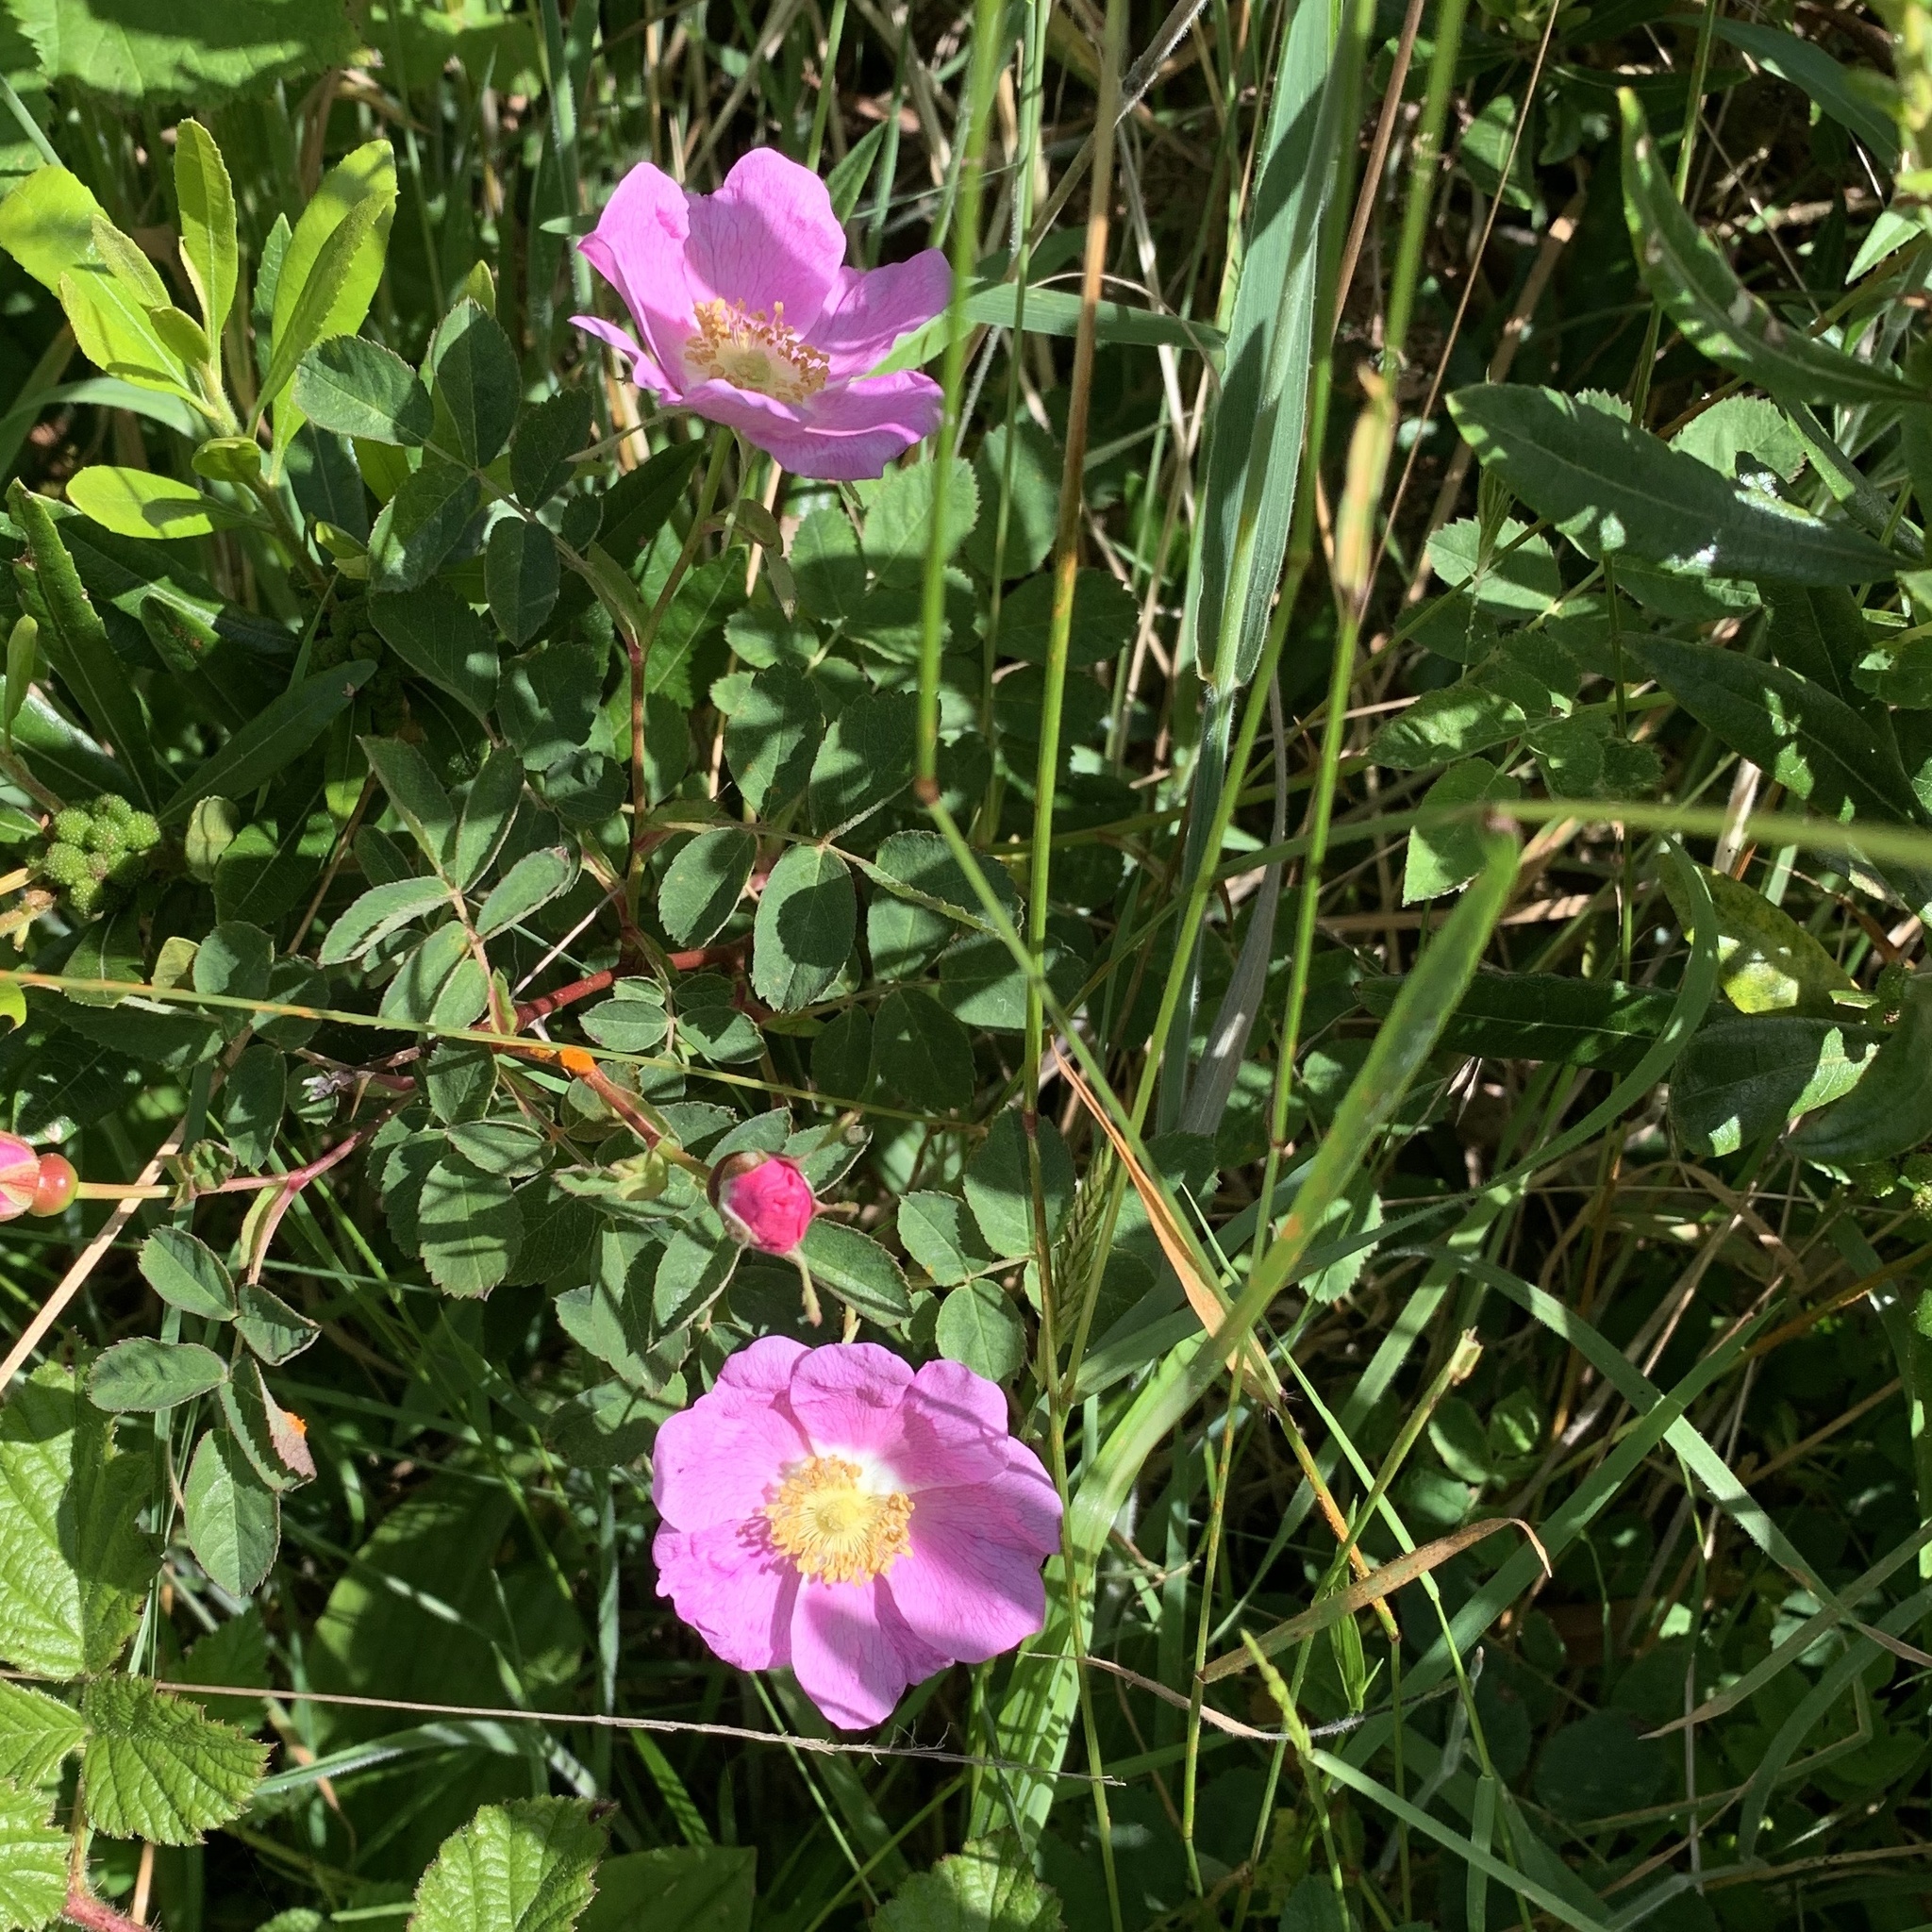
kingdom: Plantae
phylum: Tracheophyta
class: Magnoliopsida
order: Rosales
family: Rosaceae
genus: Rosa
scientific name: Rosa californica
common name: California rose
